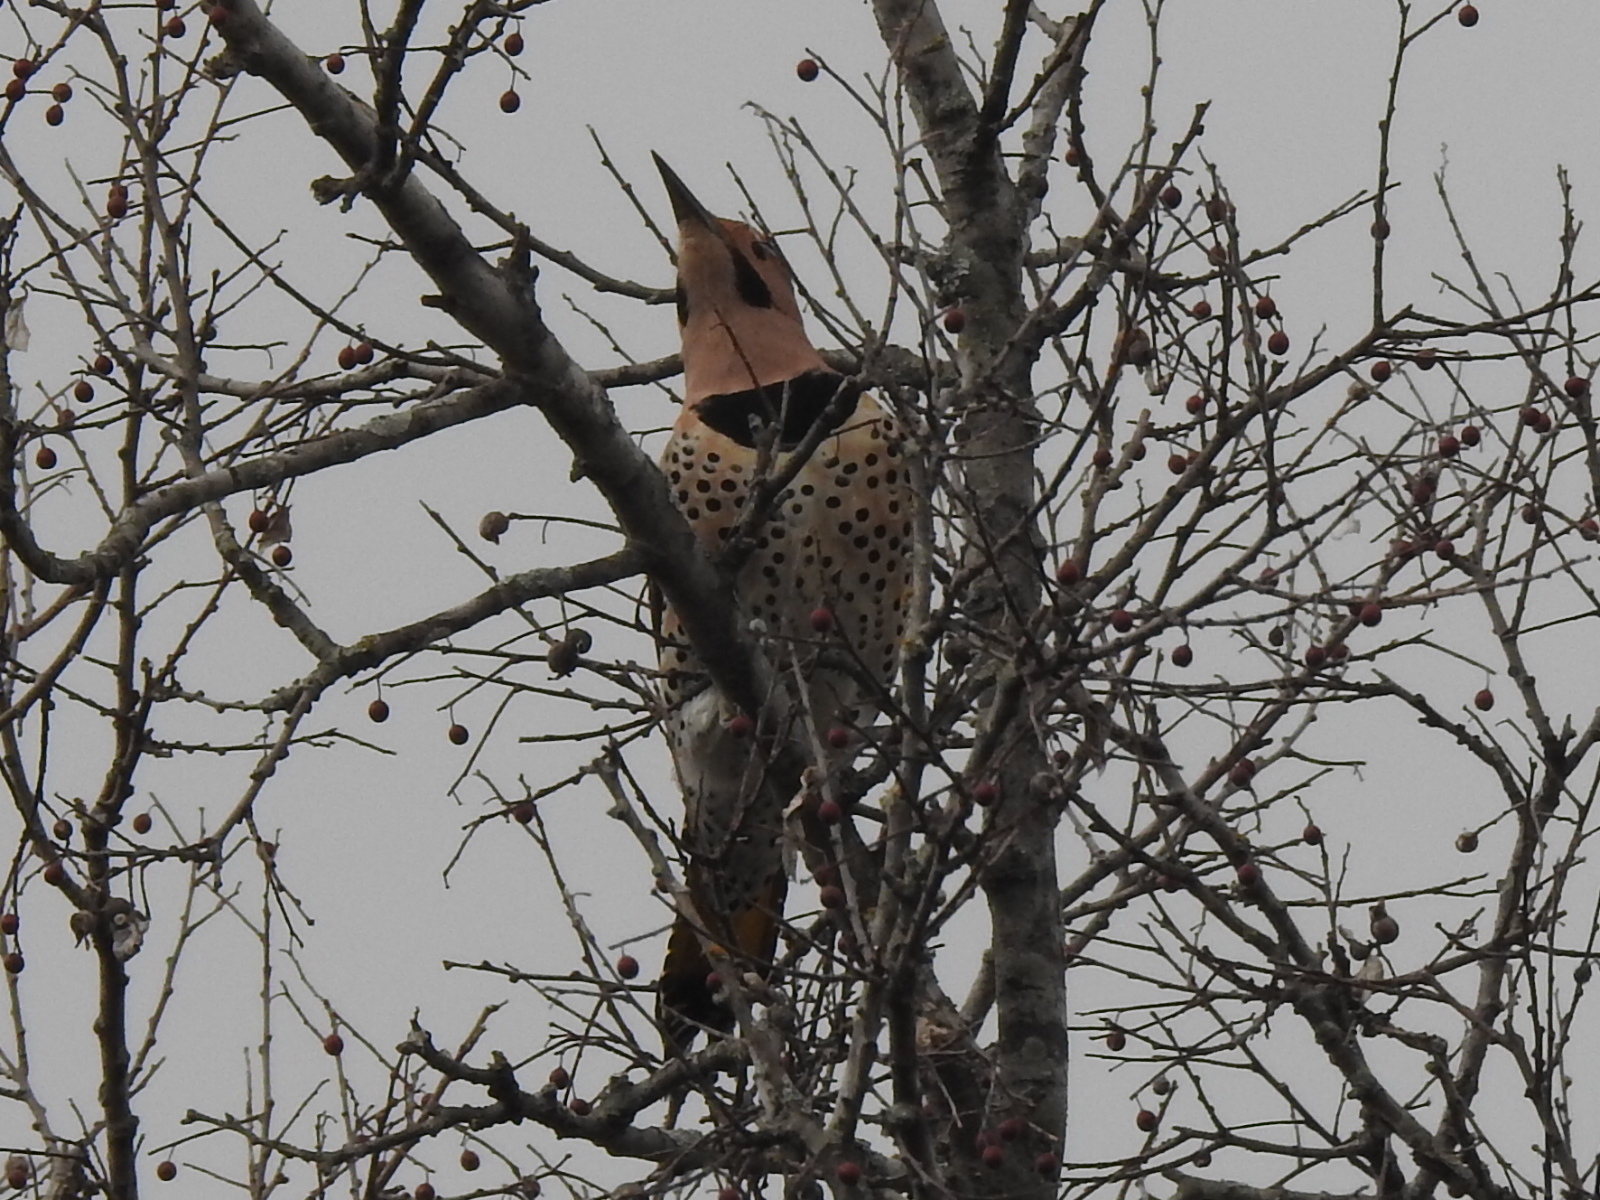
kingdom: Animalia
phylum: Chordata
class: Aves
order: Piciformes
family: Picidae
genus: Colaptes
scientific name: Colaptes auratus
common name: Northern flicker
